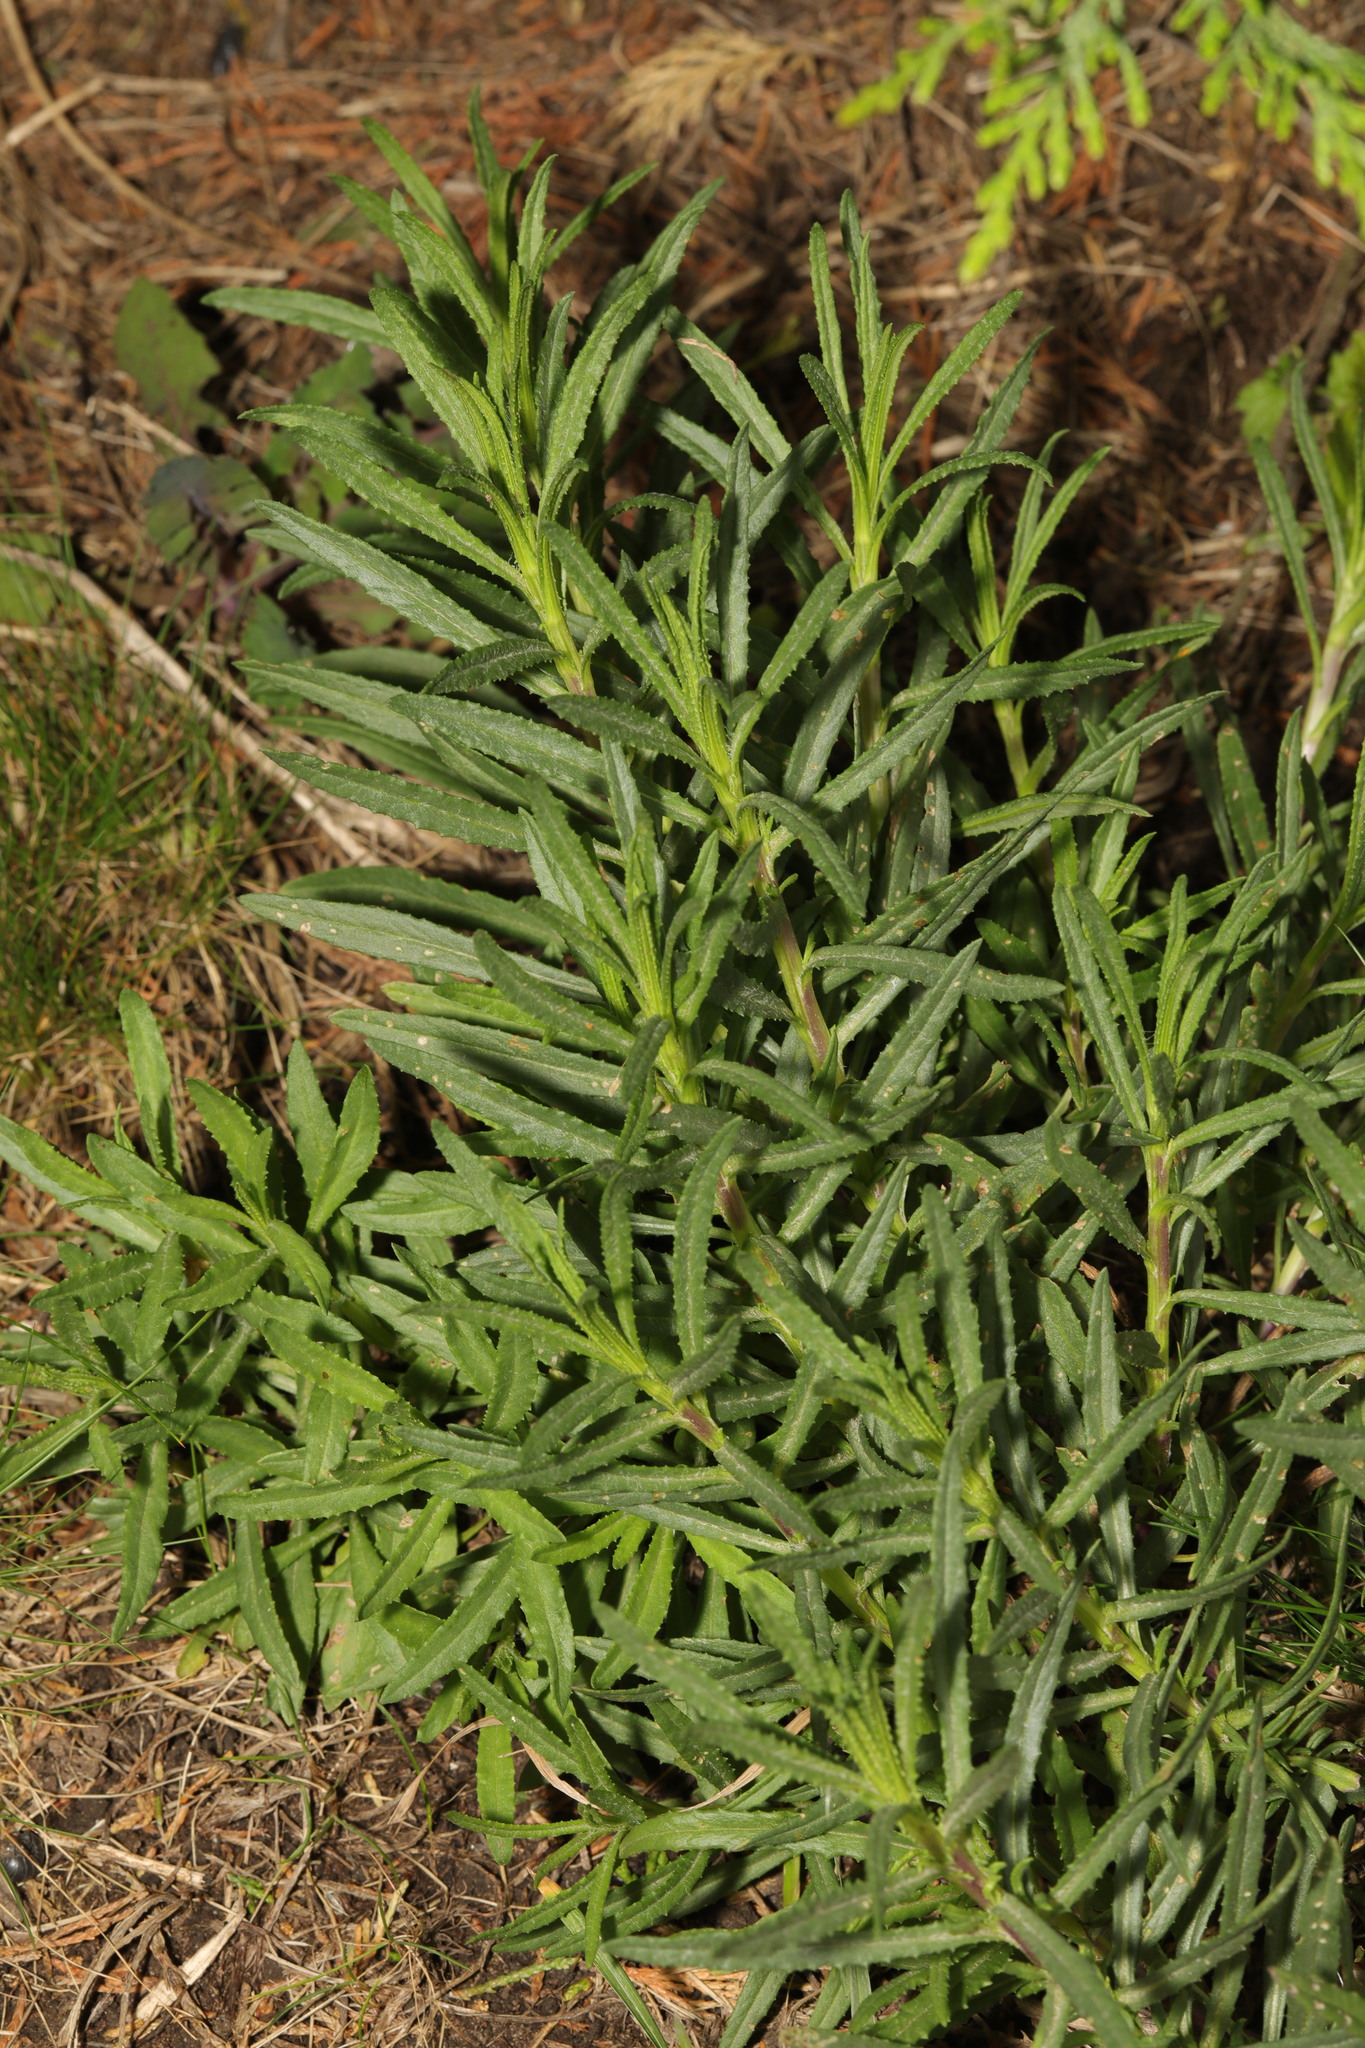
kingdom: Plantae
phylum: Tracheophyta
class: Magnoliopsida
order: Asterales
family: Asteraceae
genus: Senecio
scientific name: Senecio inaequidens
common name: Narrow-leaved ragwort
